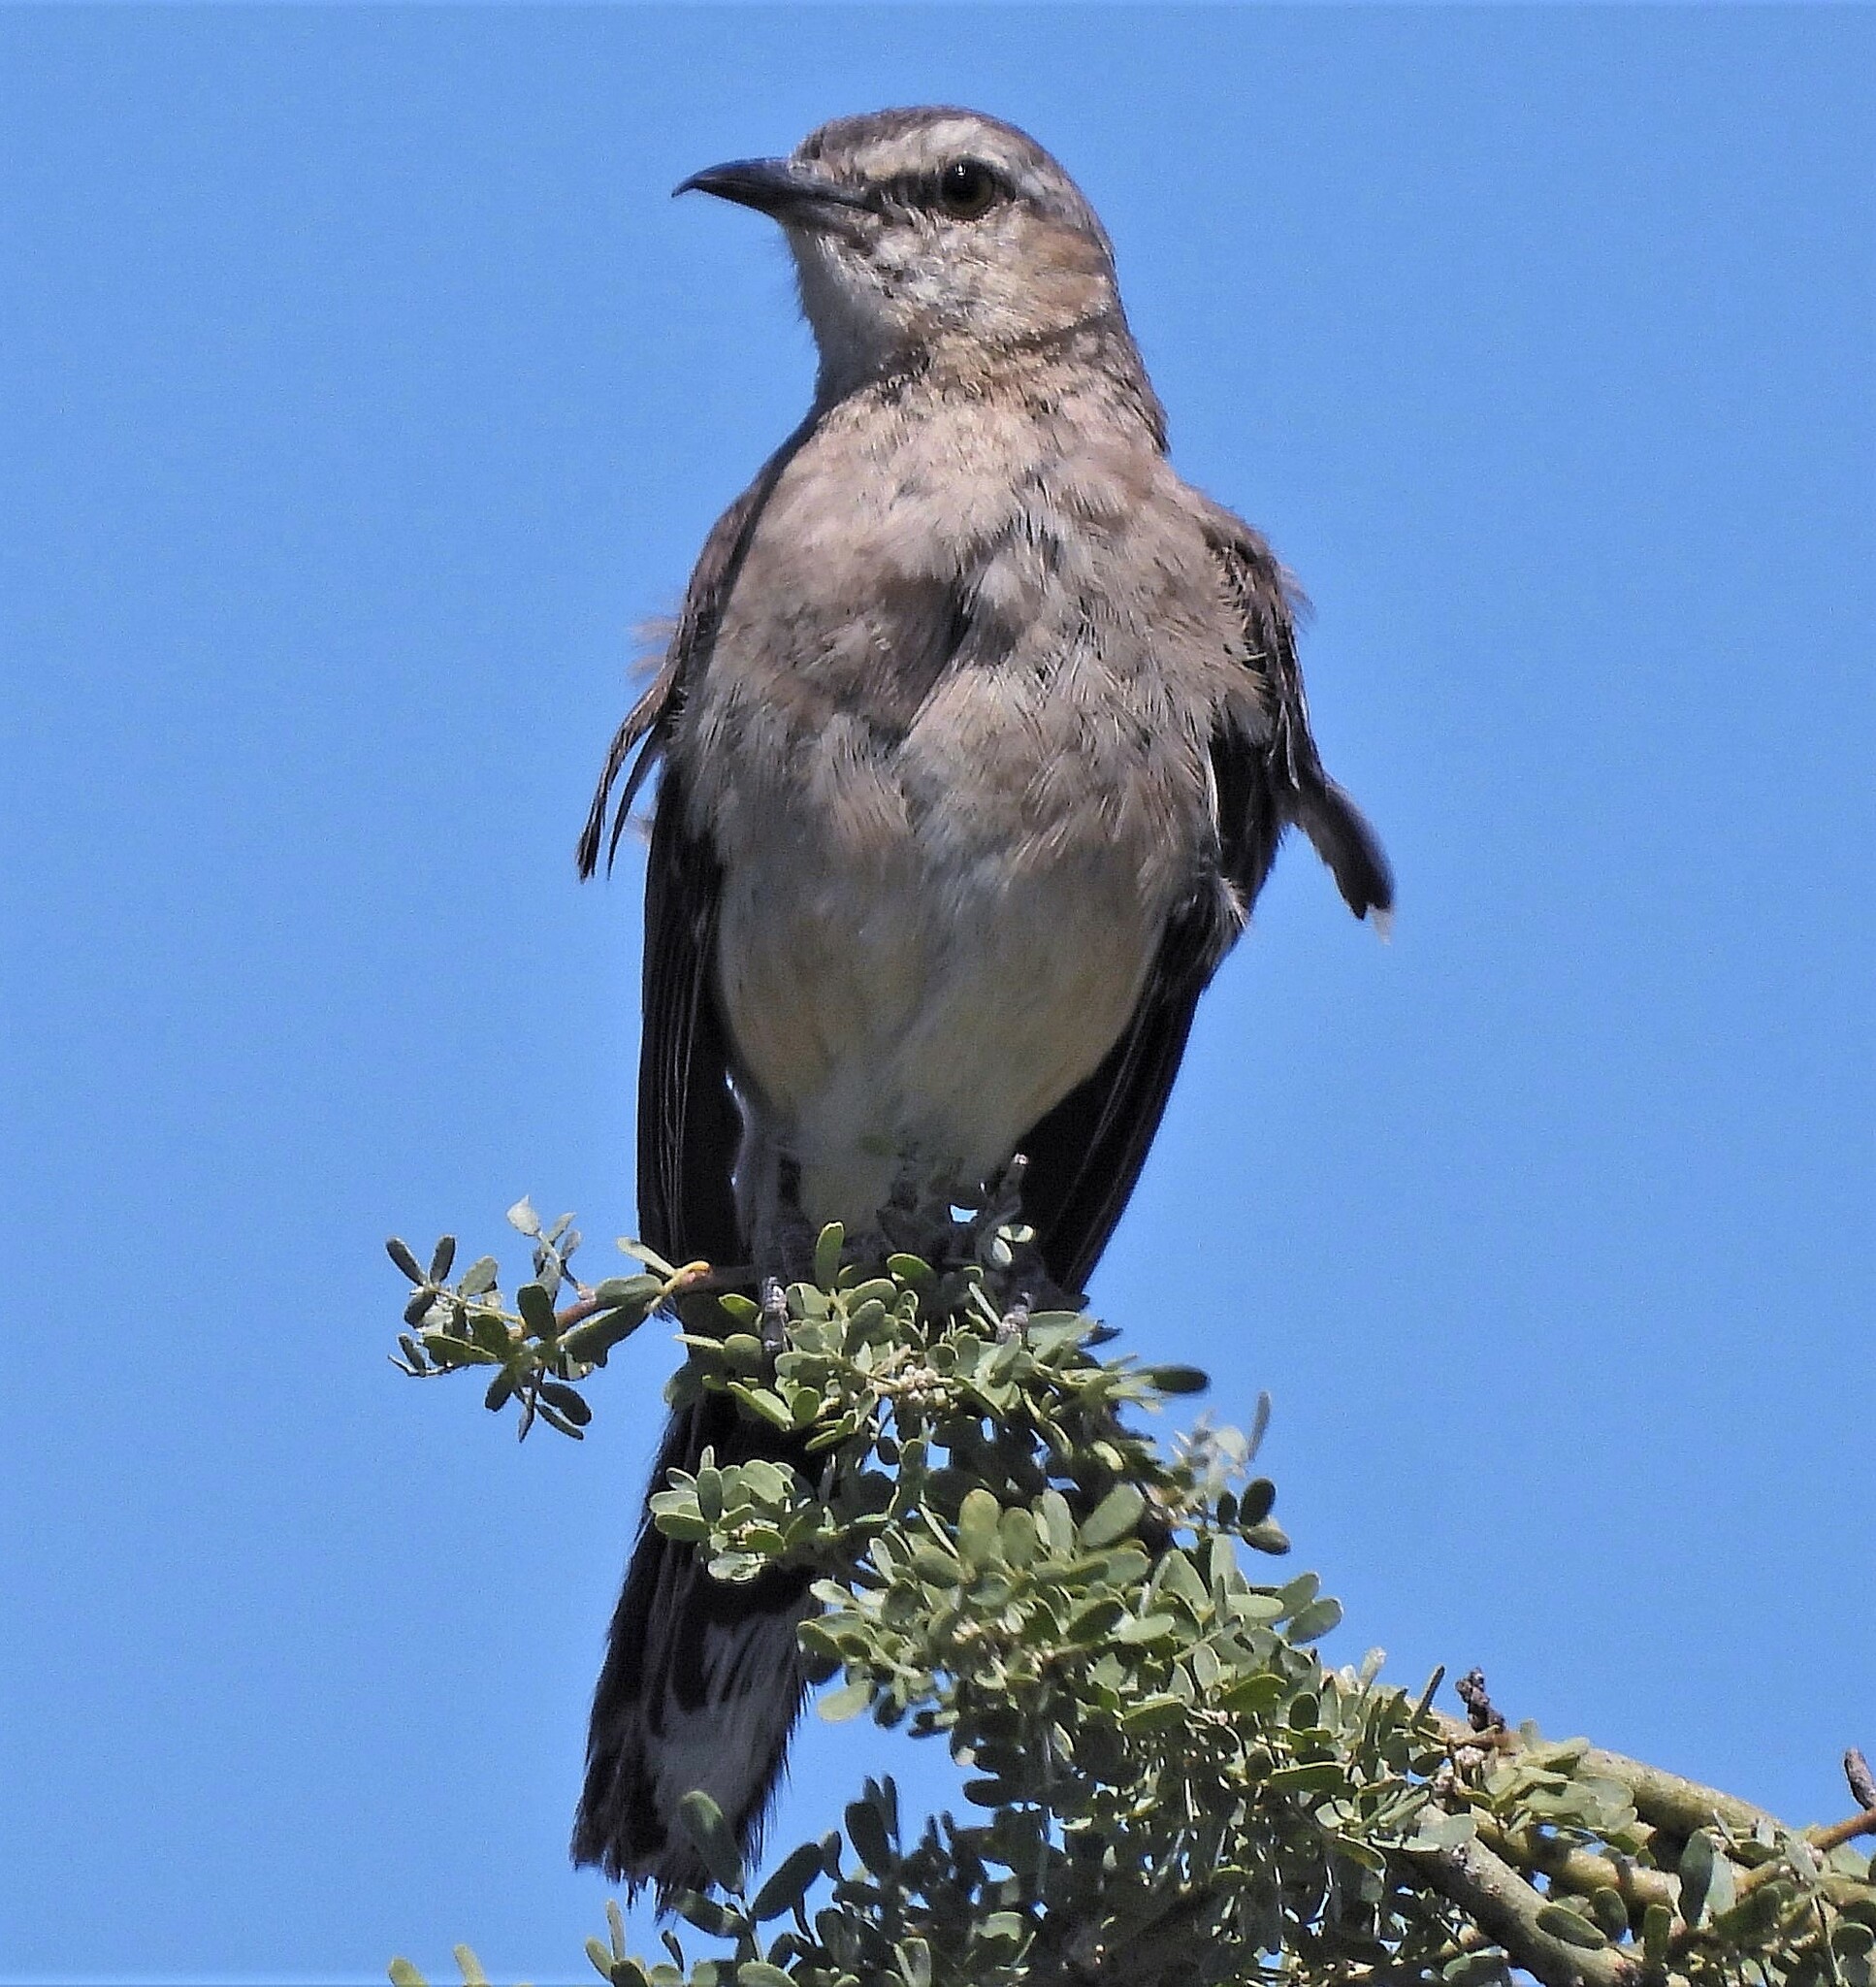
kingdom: Animalia
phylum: Chordata
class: Aves
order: Passeriformes
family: Mimidae
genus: Mimus
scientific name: Mimus saturninus
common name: Chalk-browed mockingbird
